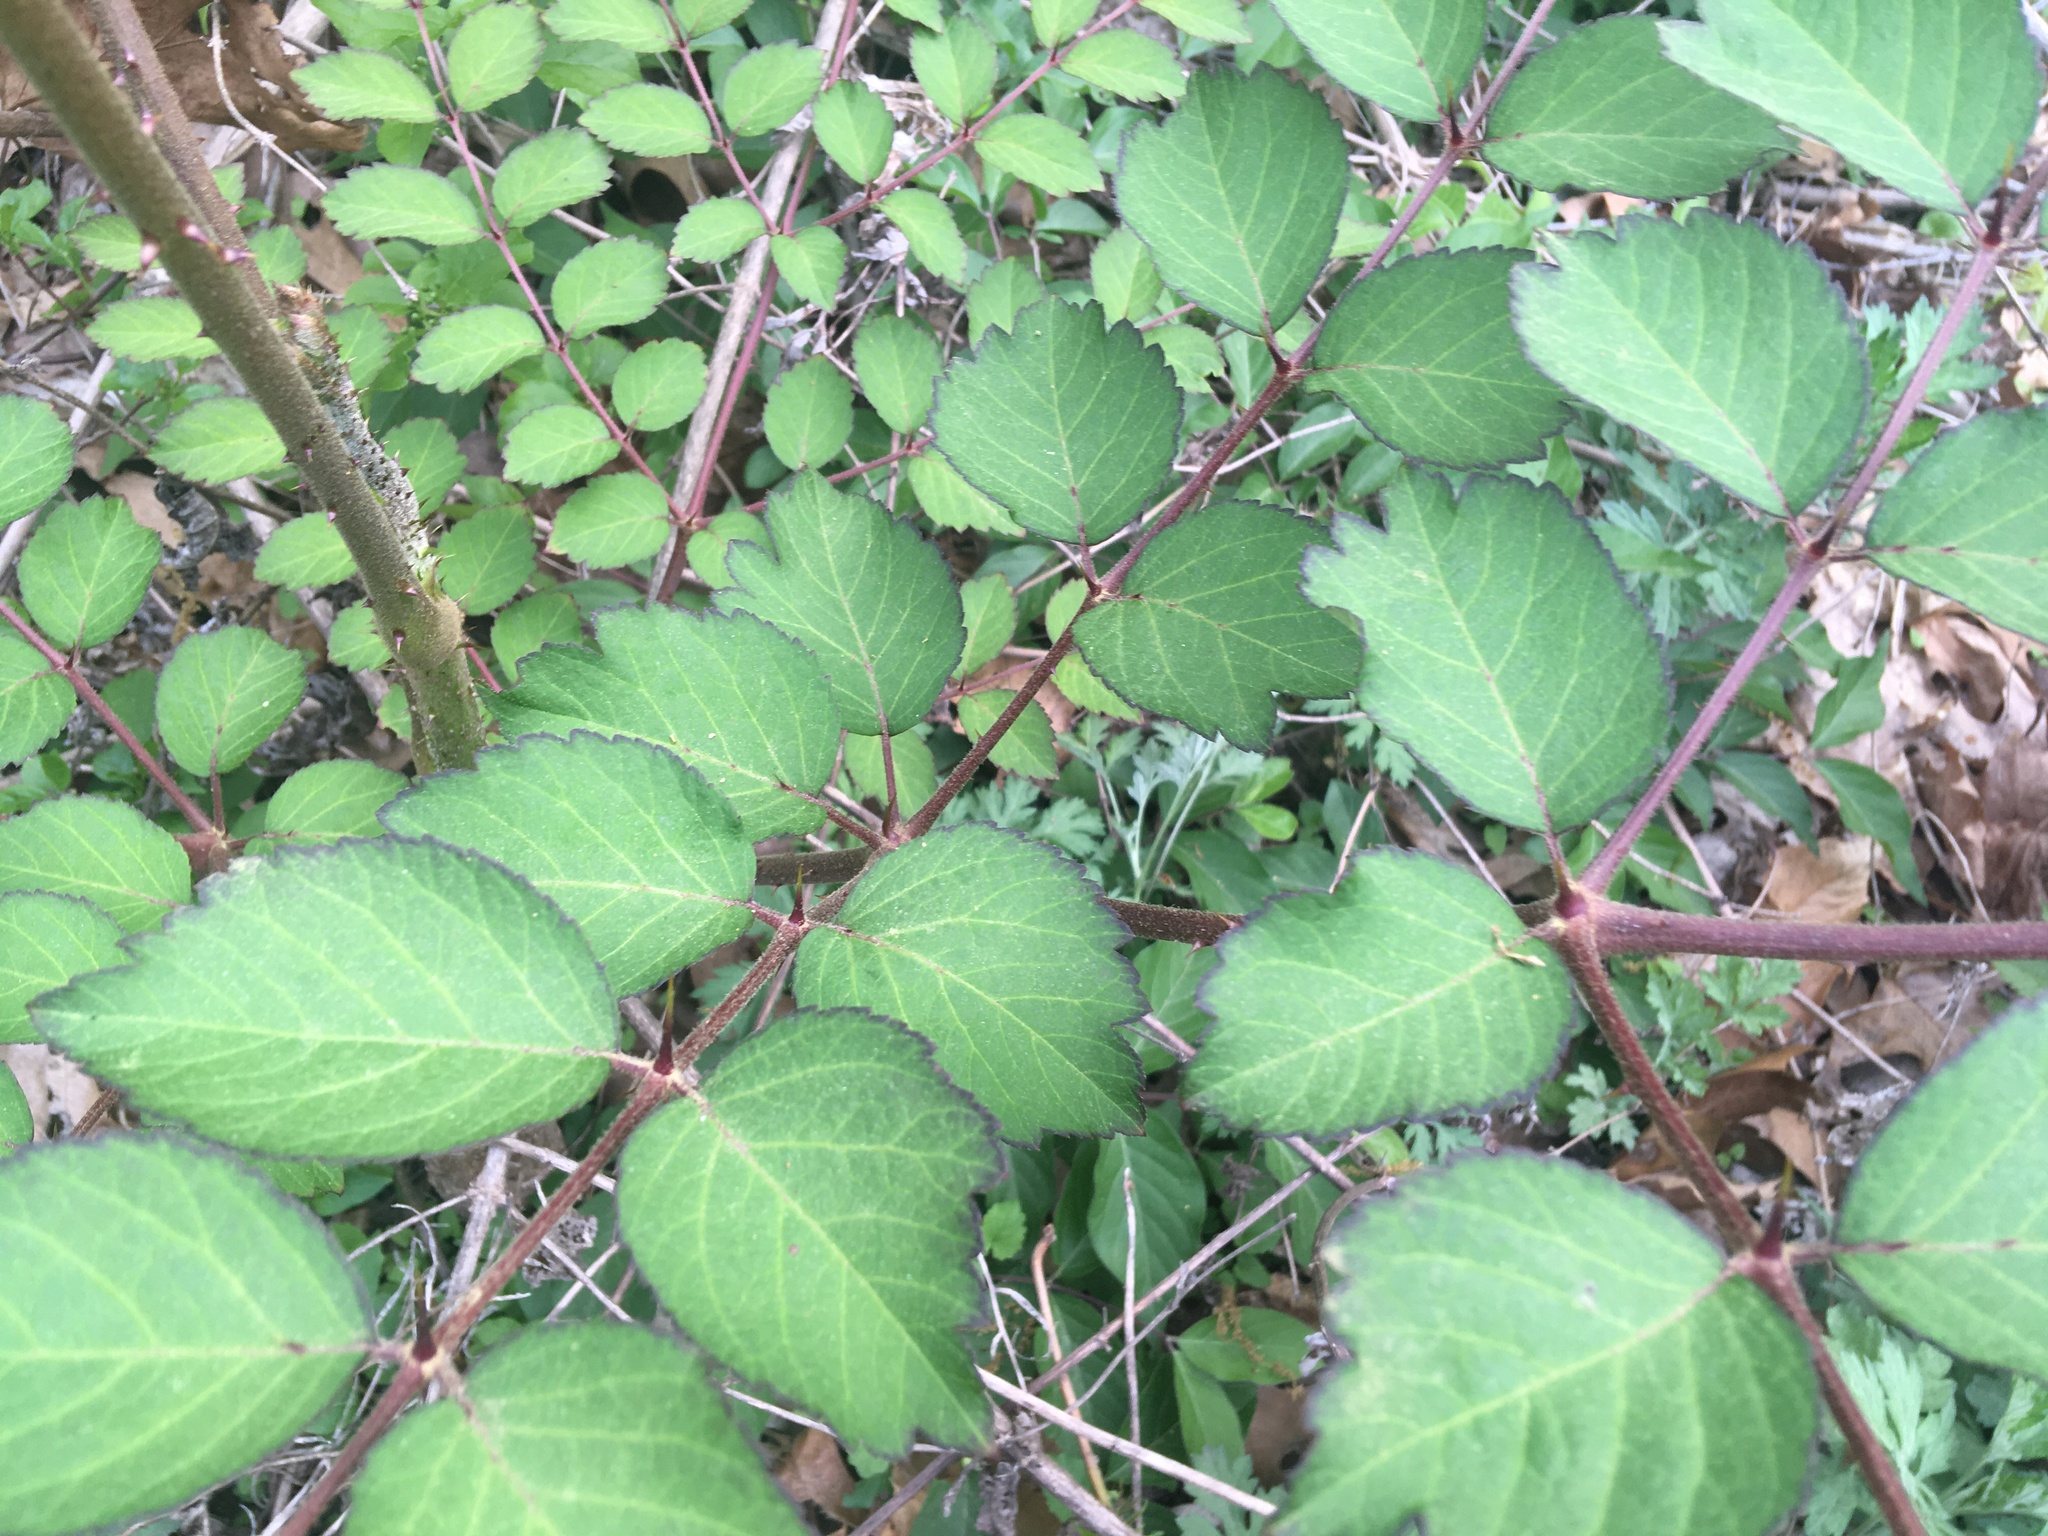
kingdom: Plantae
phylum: Tracheophyta
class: Magnoliopsida
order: Apiales
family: Araliaceae
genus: Aralia
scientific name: Aralia elata
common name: Japanese angelica-tree
